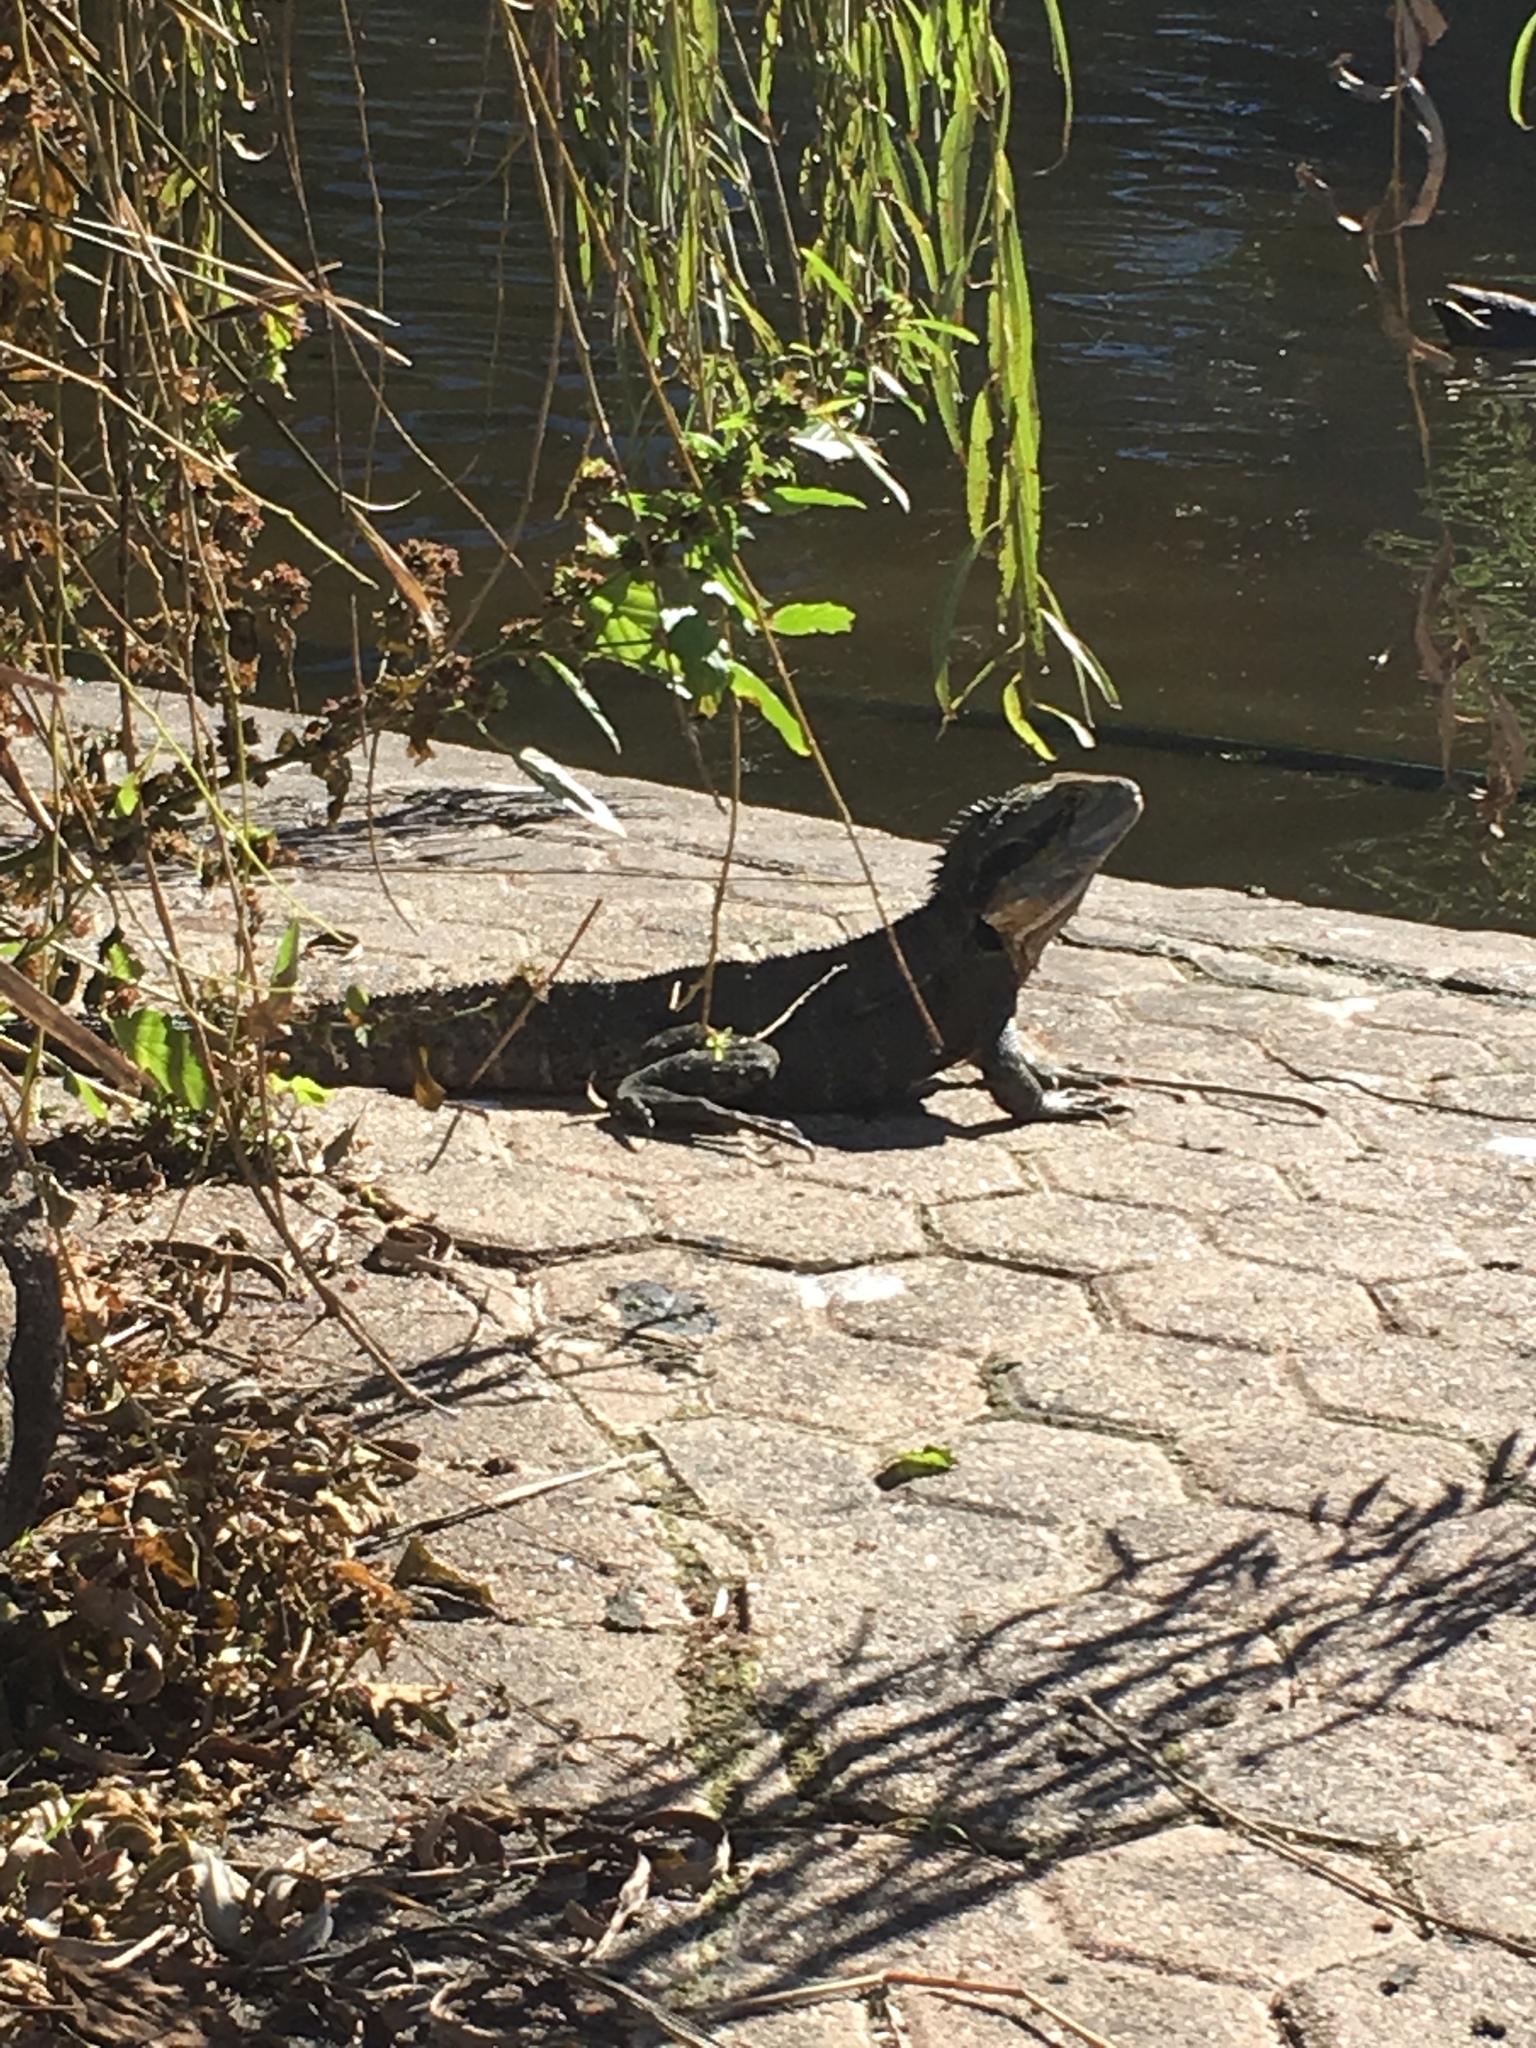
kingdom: Animalia
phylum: Chordata
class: Squamata
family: Agamidae
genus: Intellagama
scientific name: Intellagama lesueurii
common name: Eastern water dragon
